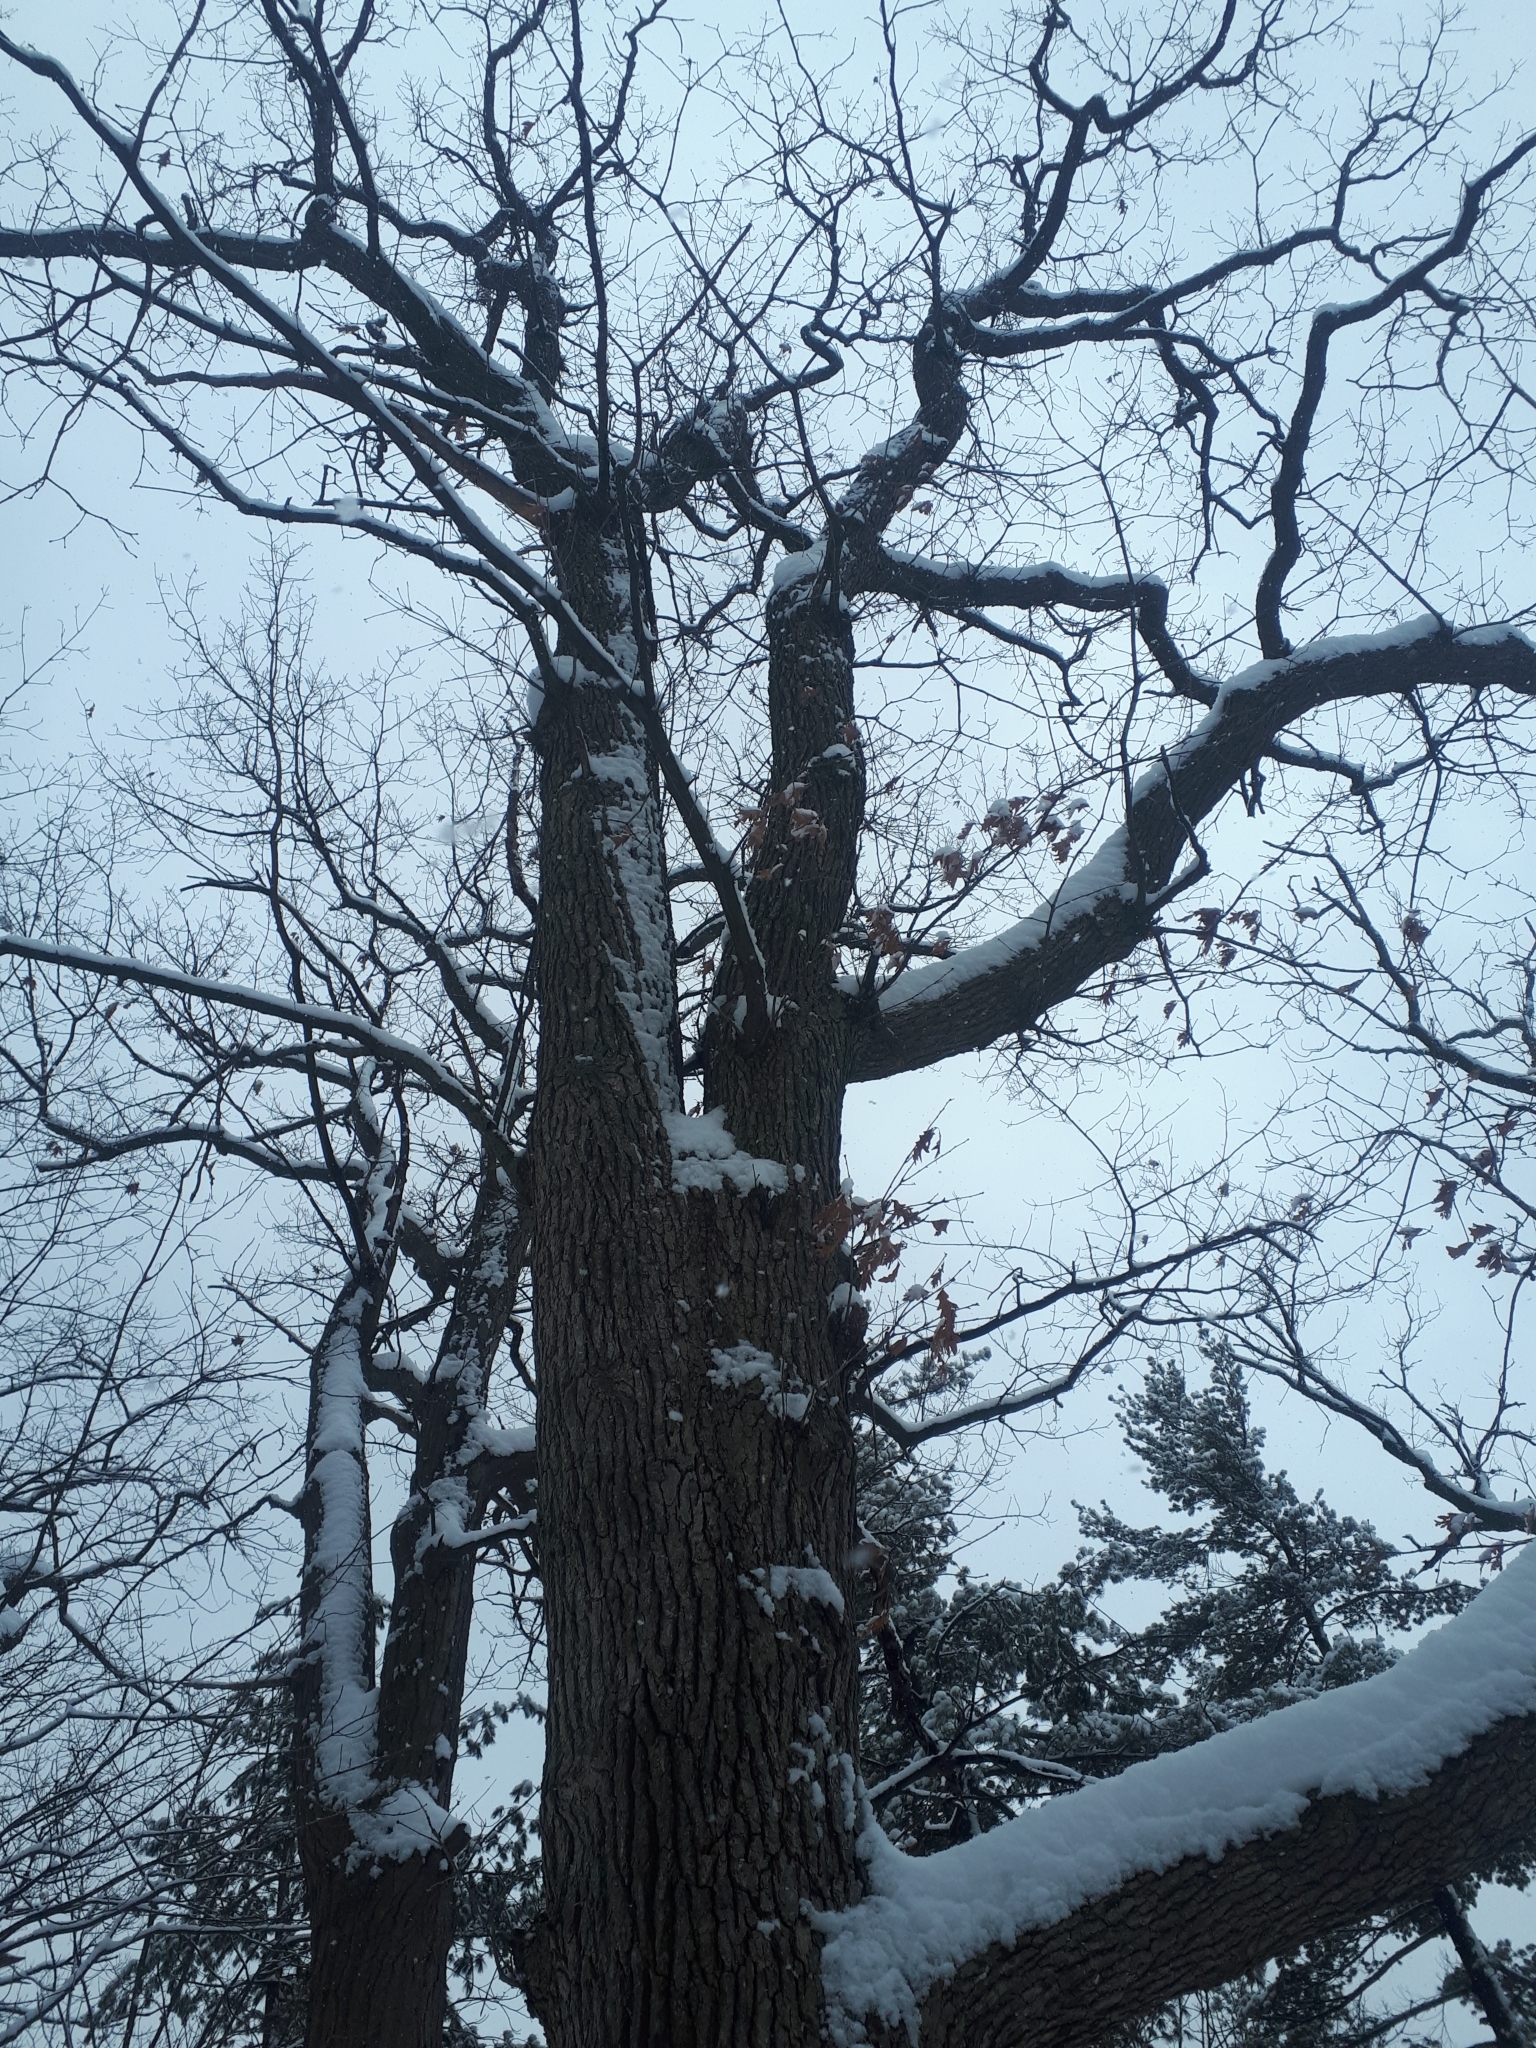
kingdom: Plantae
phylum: Tracheophyta
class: Magnoliopsida
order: Fagales
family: Fagaceae
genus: Quercus
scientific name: Quercus alba
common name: White oak
